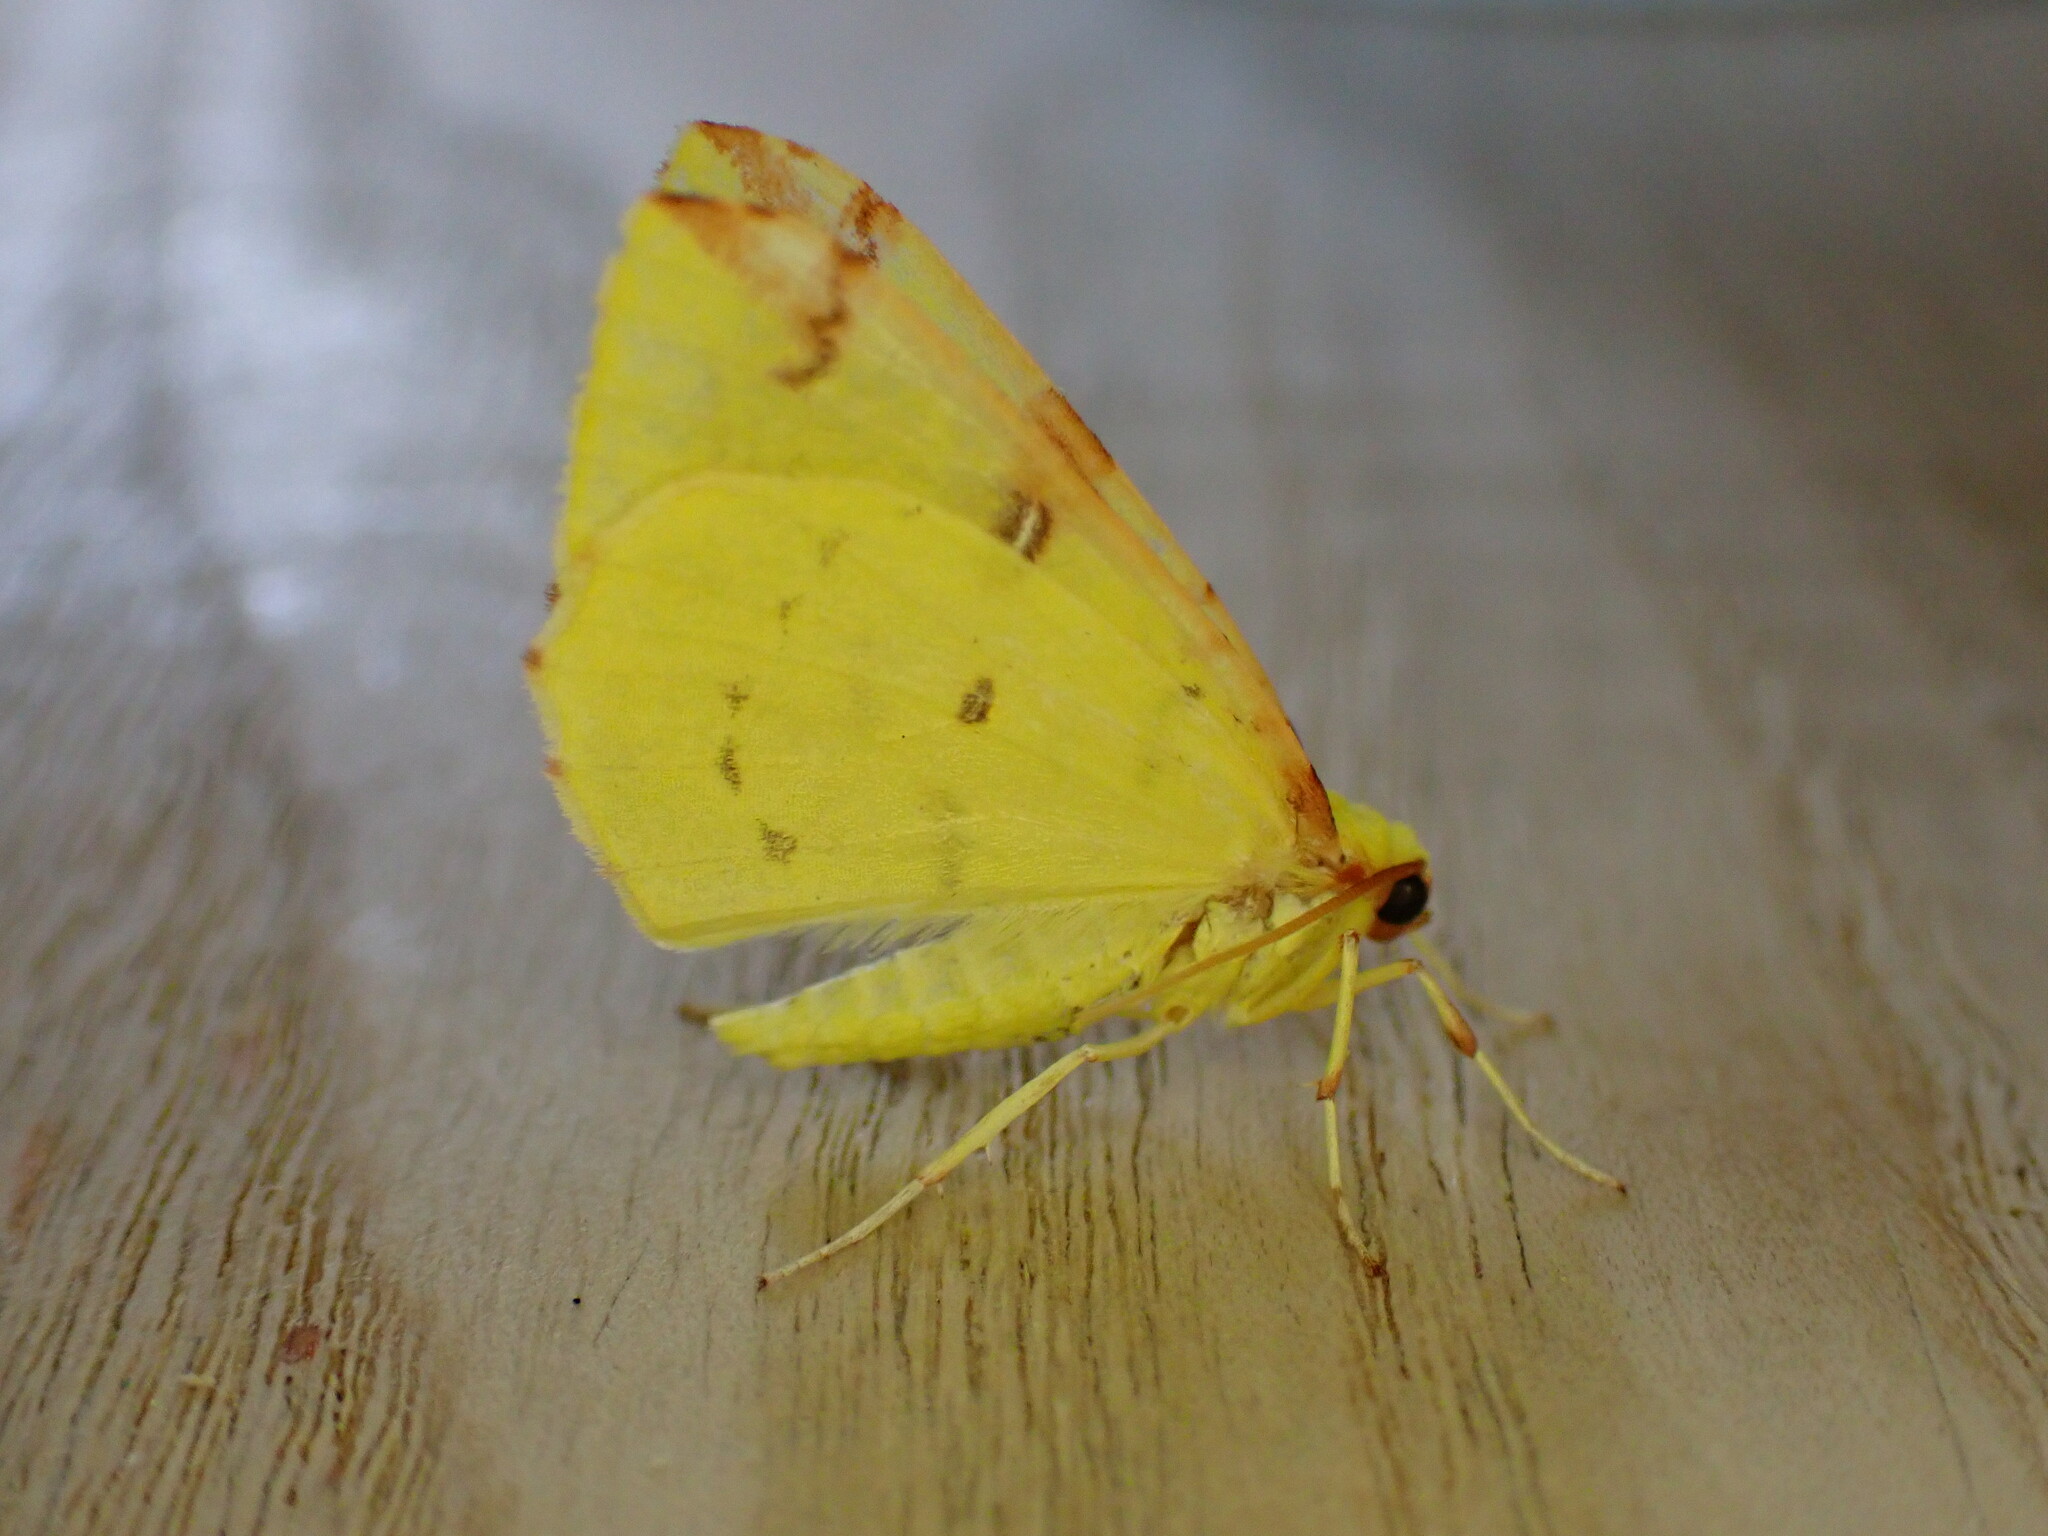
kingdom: Animalia
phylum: Arthropoda
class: Insecta
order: Lepidoptera
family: Geometridae
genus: Opisthograptis
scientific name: Opisthograptis luteolata
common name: Brimstone moth
